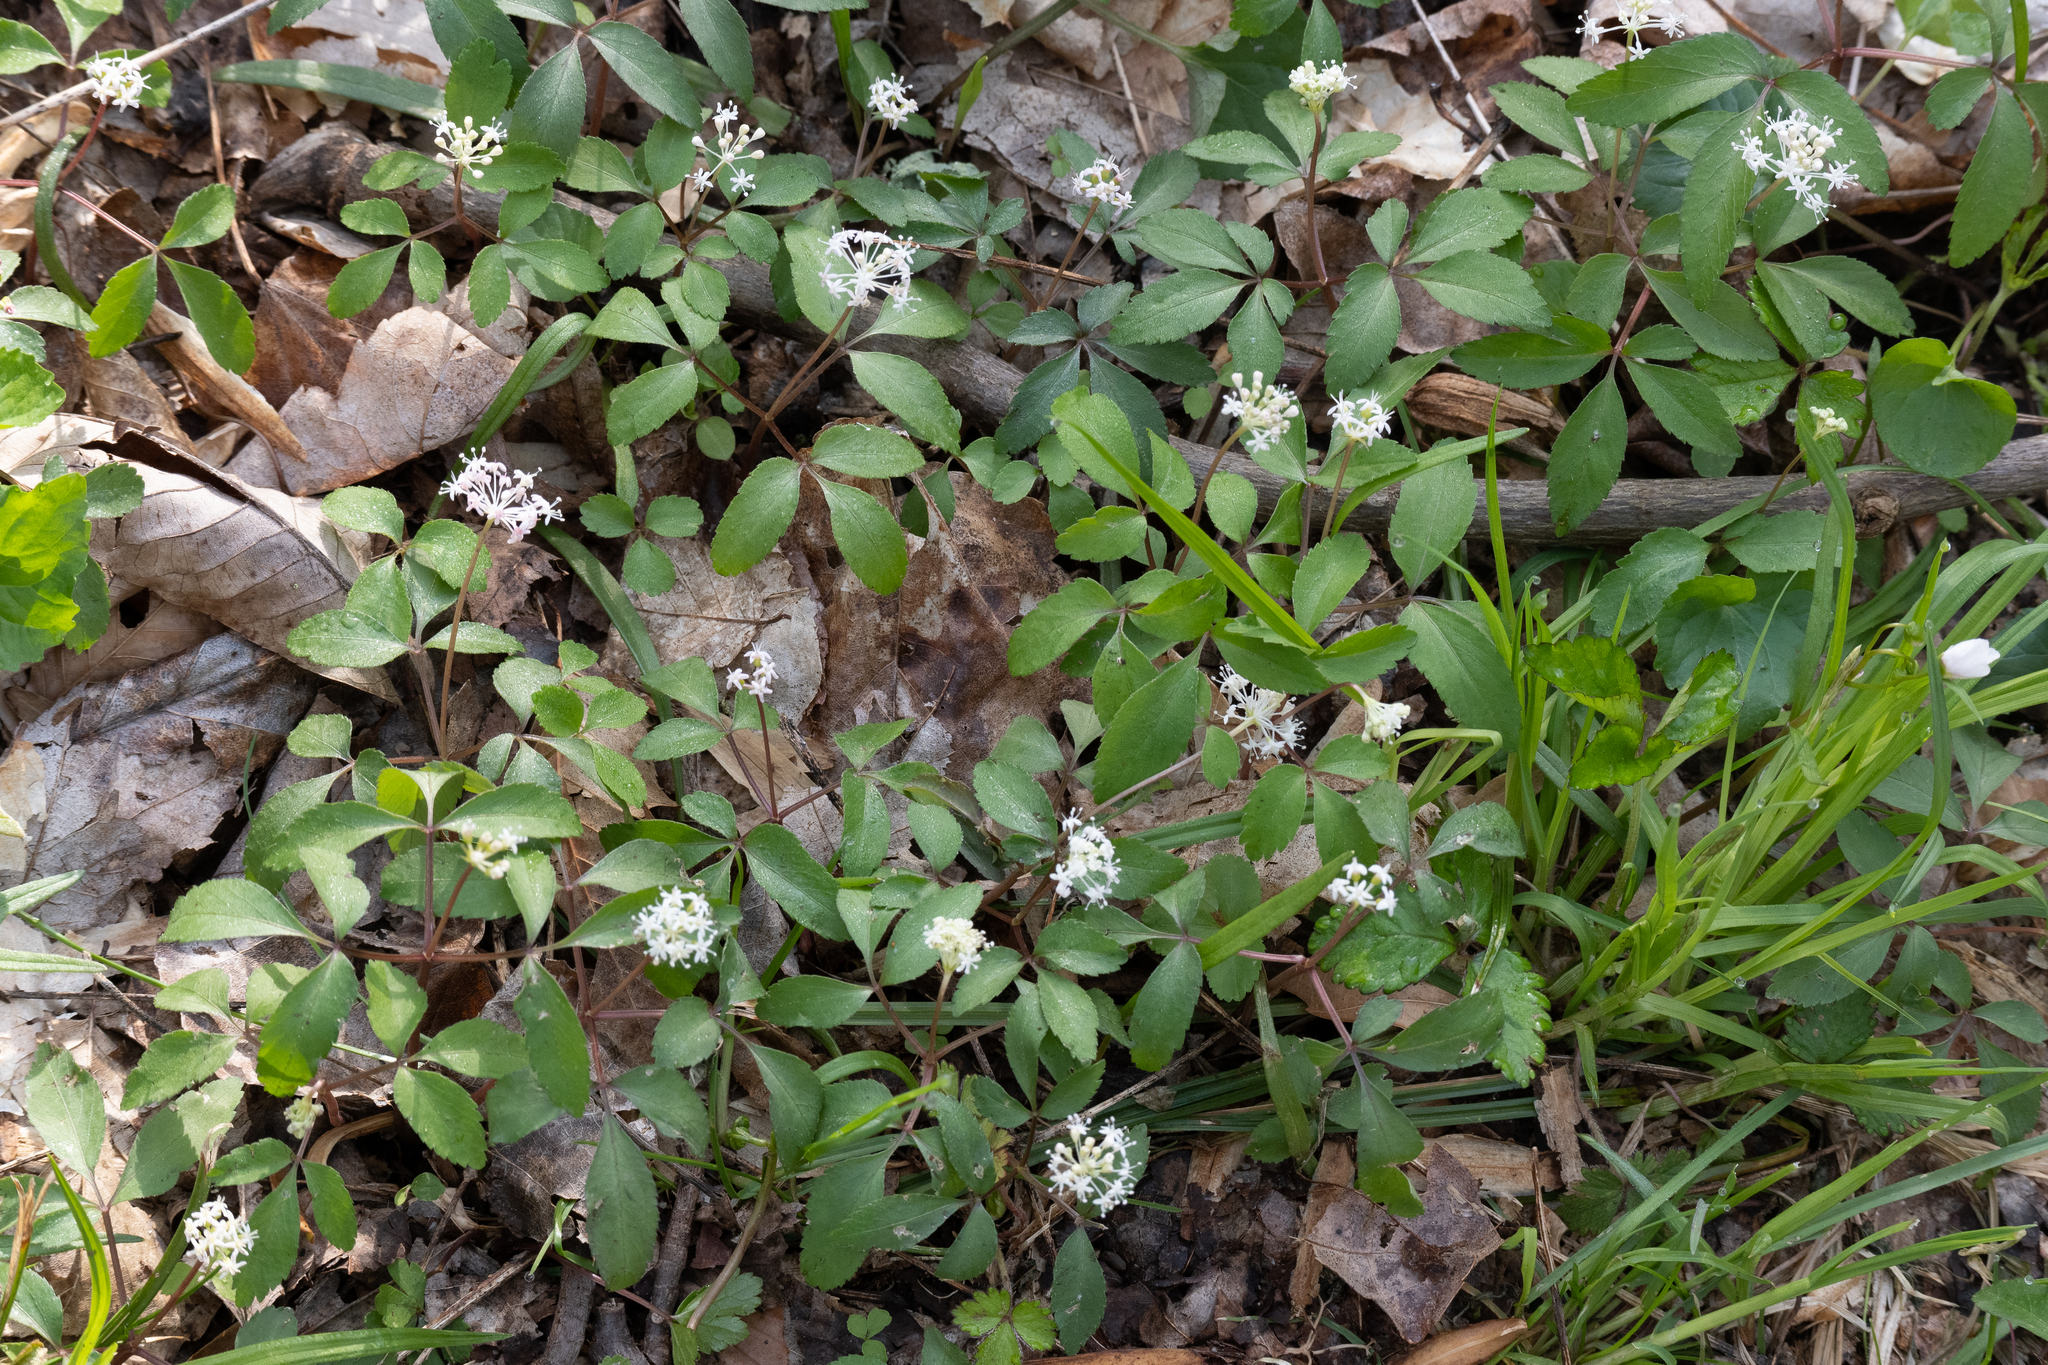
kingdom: Plantae
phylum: Tracheophyta
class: Magnoliopsida
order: Apiales
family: Araliaceae
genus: Panax
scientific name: Panax trifolius
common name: Dwarf ginseng
